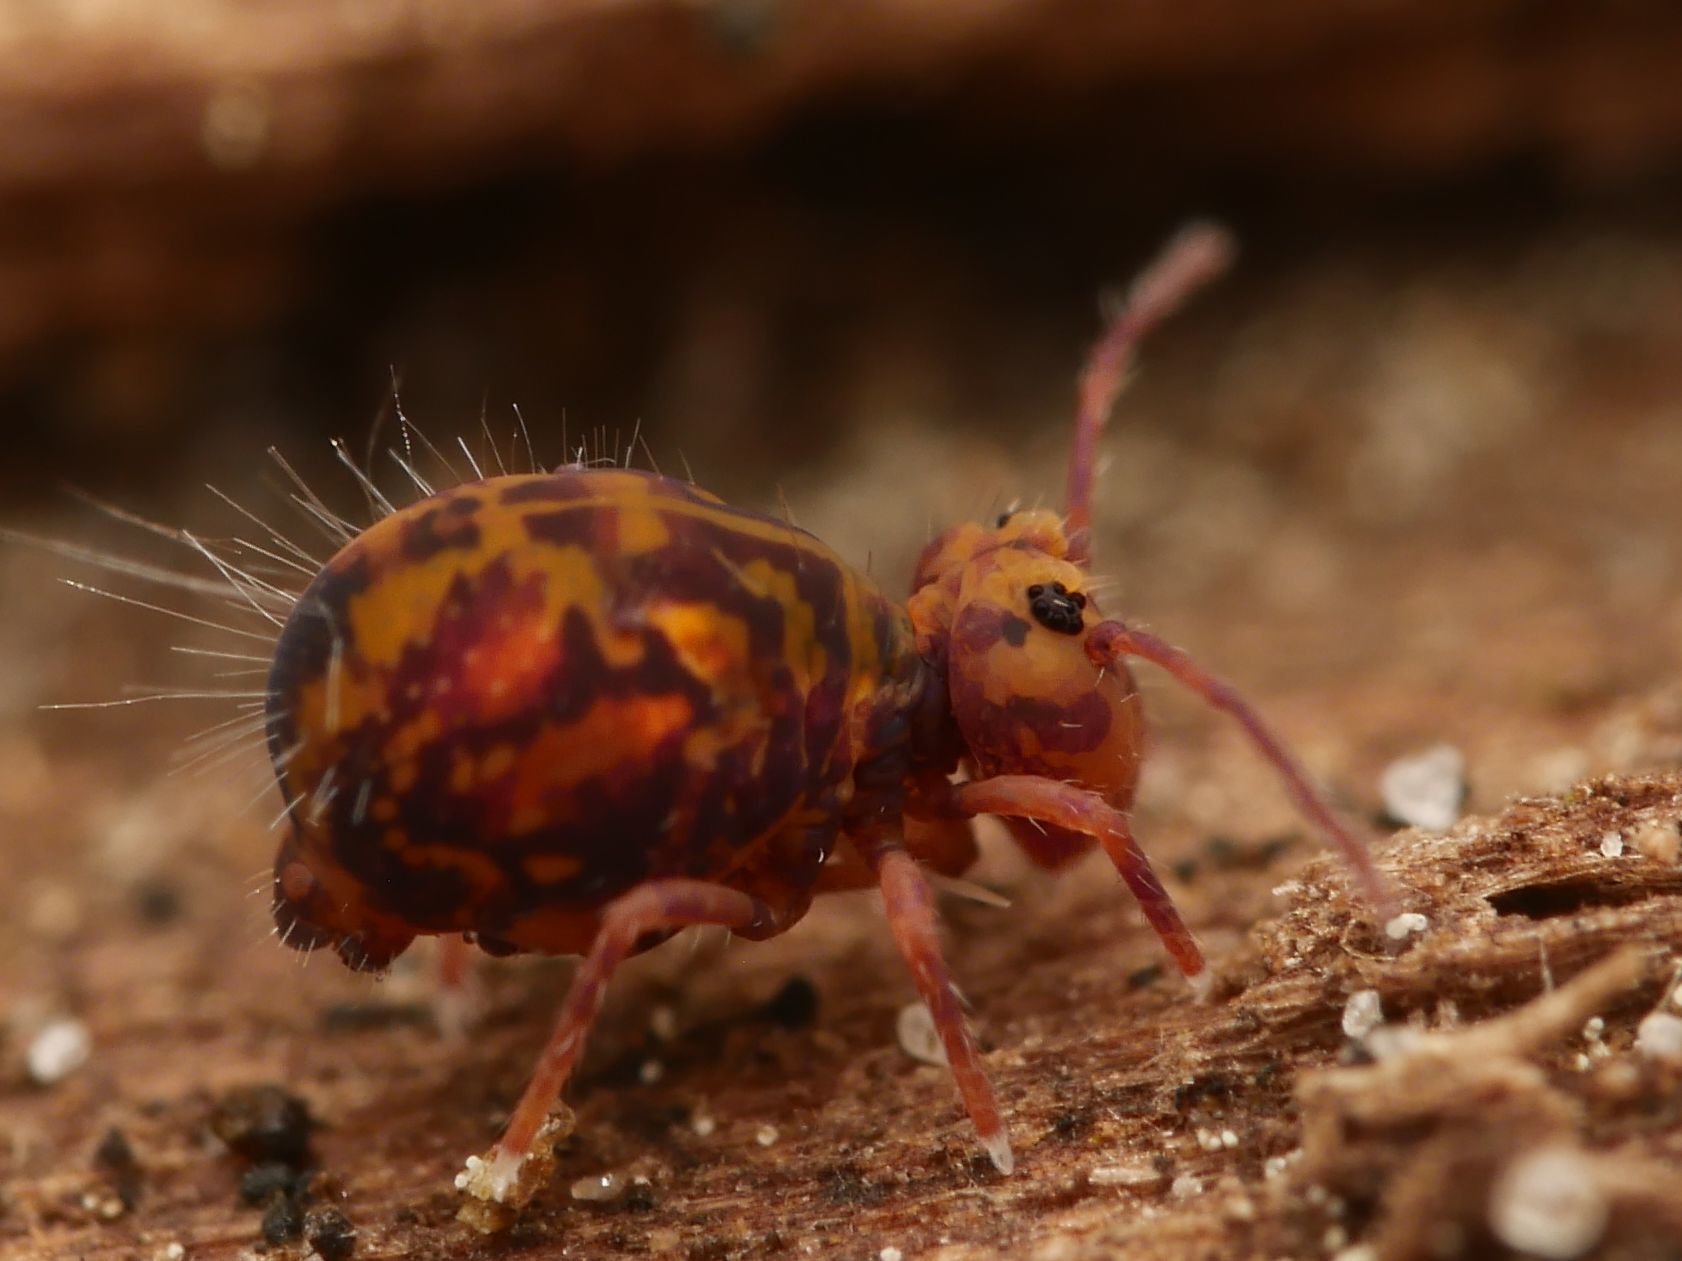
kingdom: Animalia
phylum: Arthropoda
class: Collembola
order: Symphypleona
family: Dicyrtomidae
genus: Dicyrtomina
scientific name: Dicyrtomina ornata
